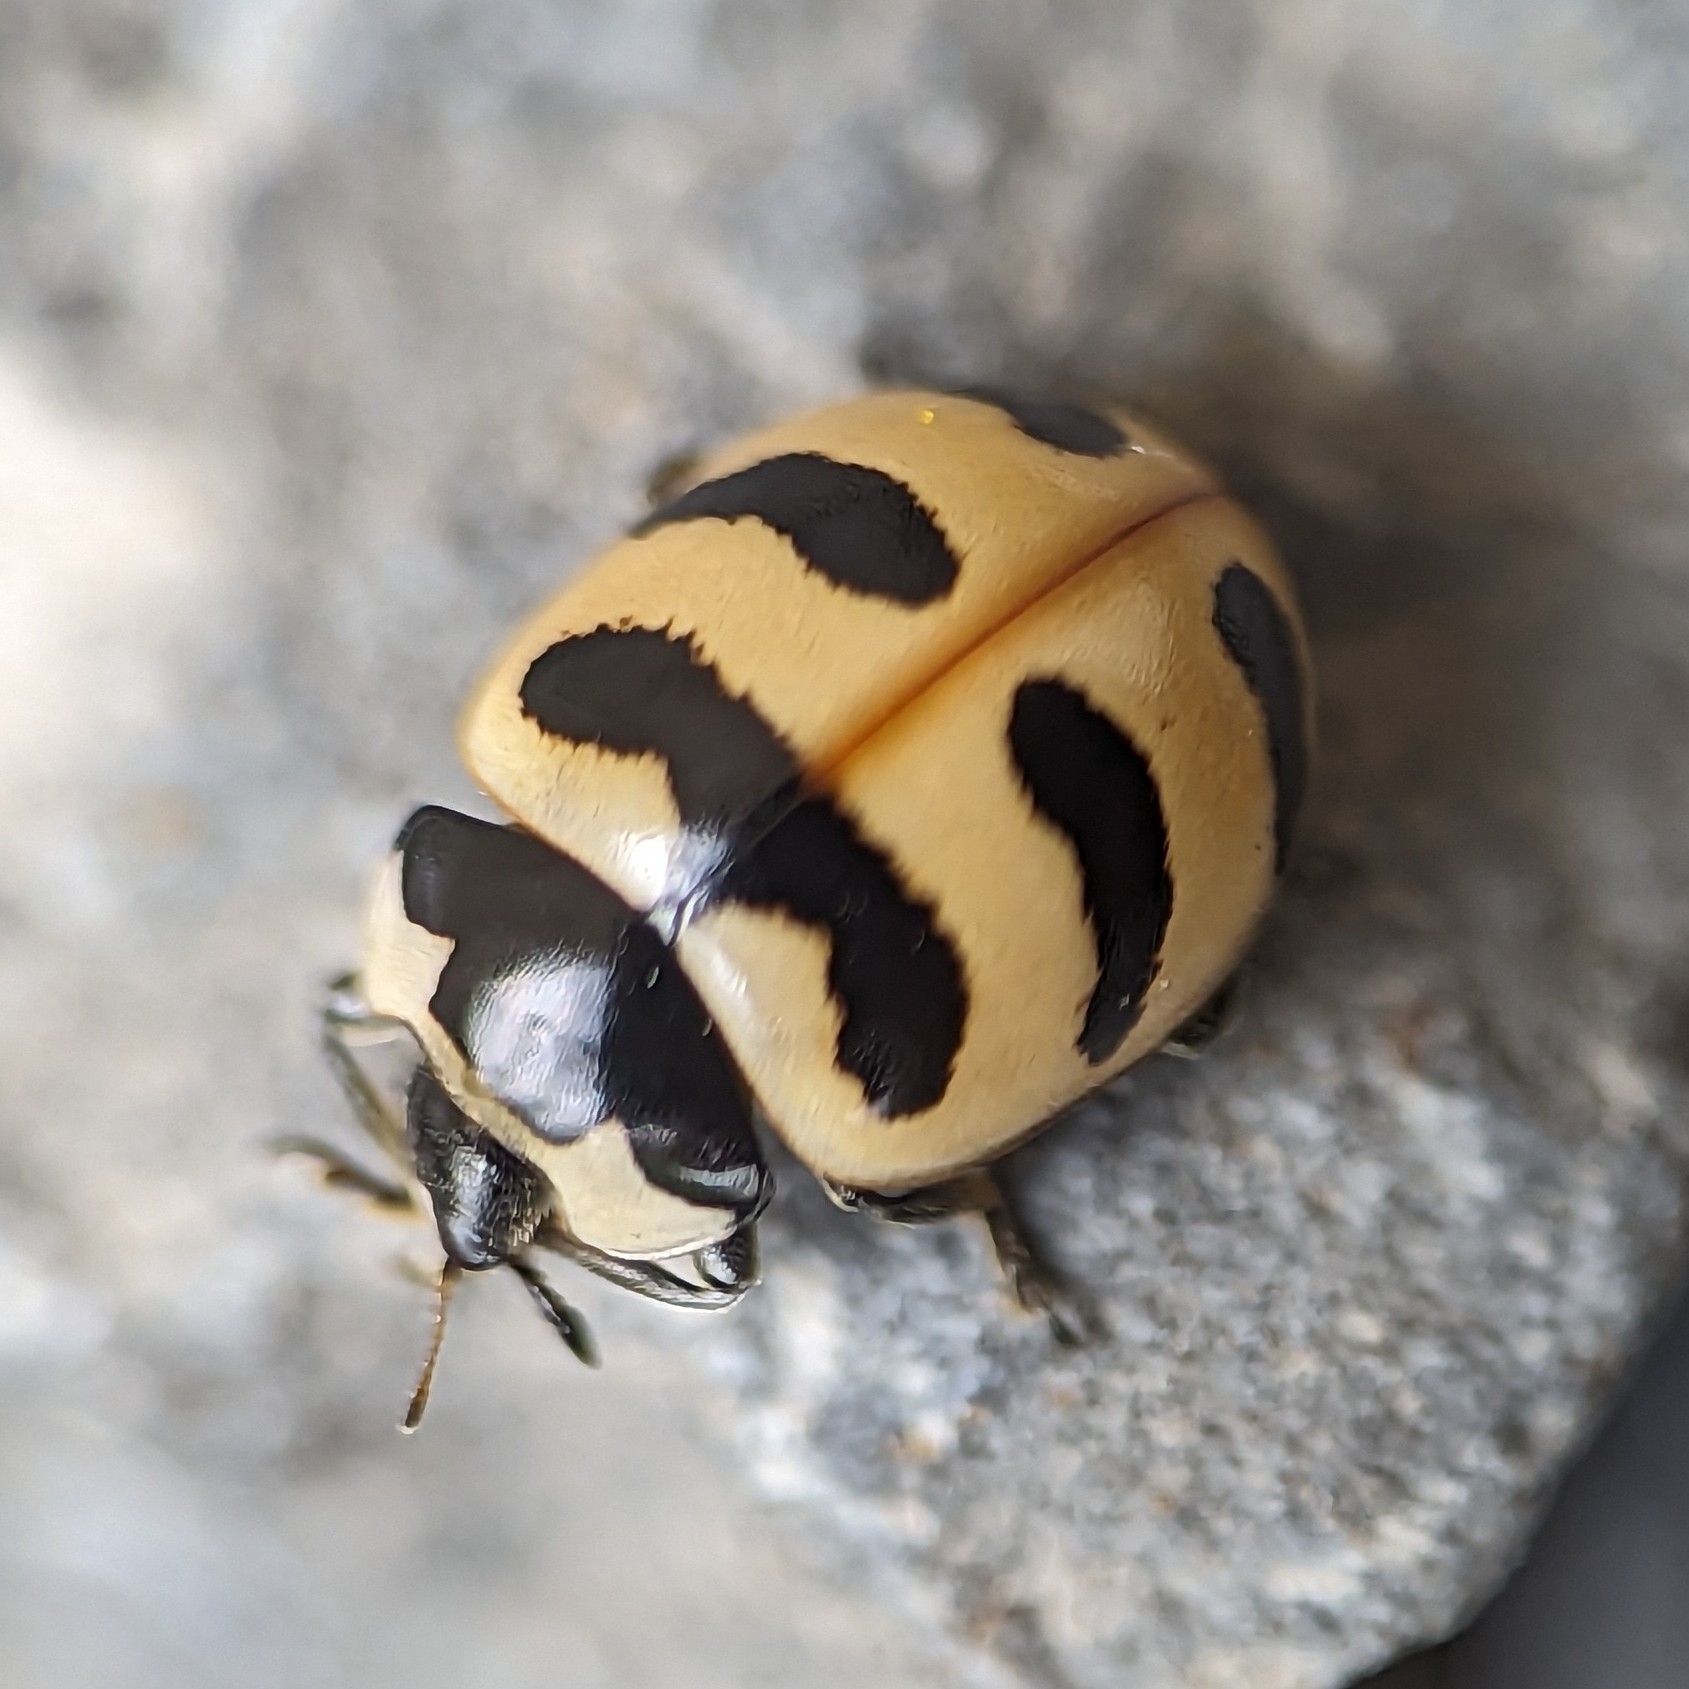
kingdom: Animalia
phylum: Arthropoda
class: Insecta
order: Coleoptera
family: Coccinellidae
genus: Coccinella
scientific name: Coccinella trifasciata
